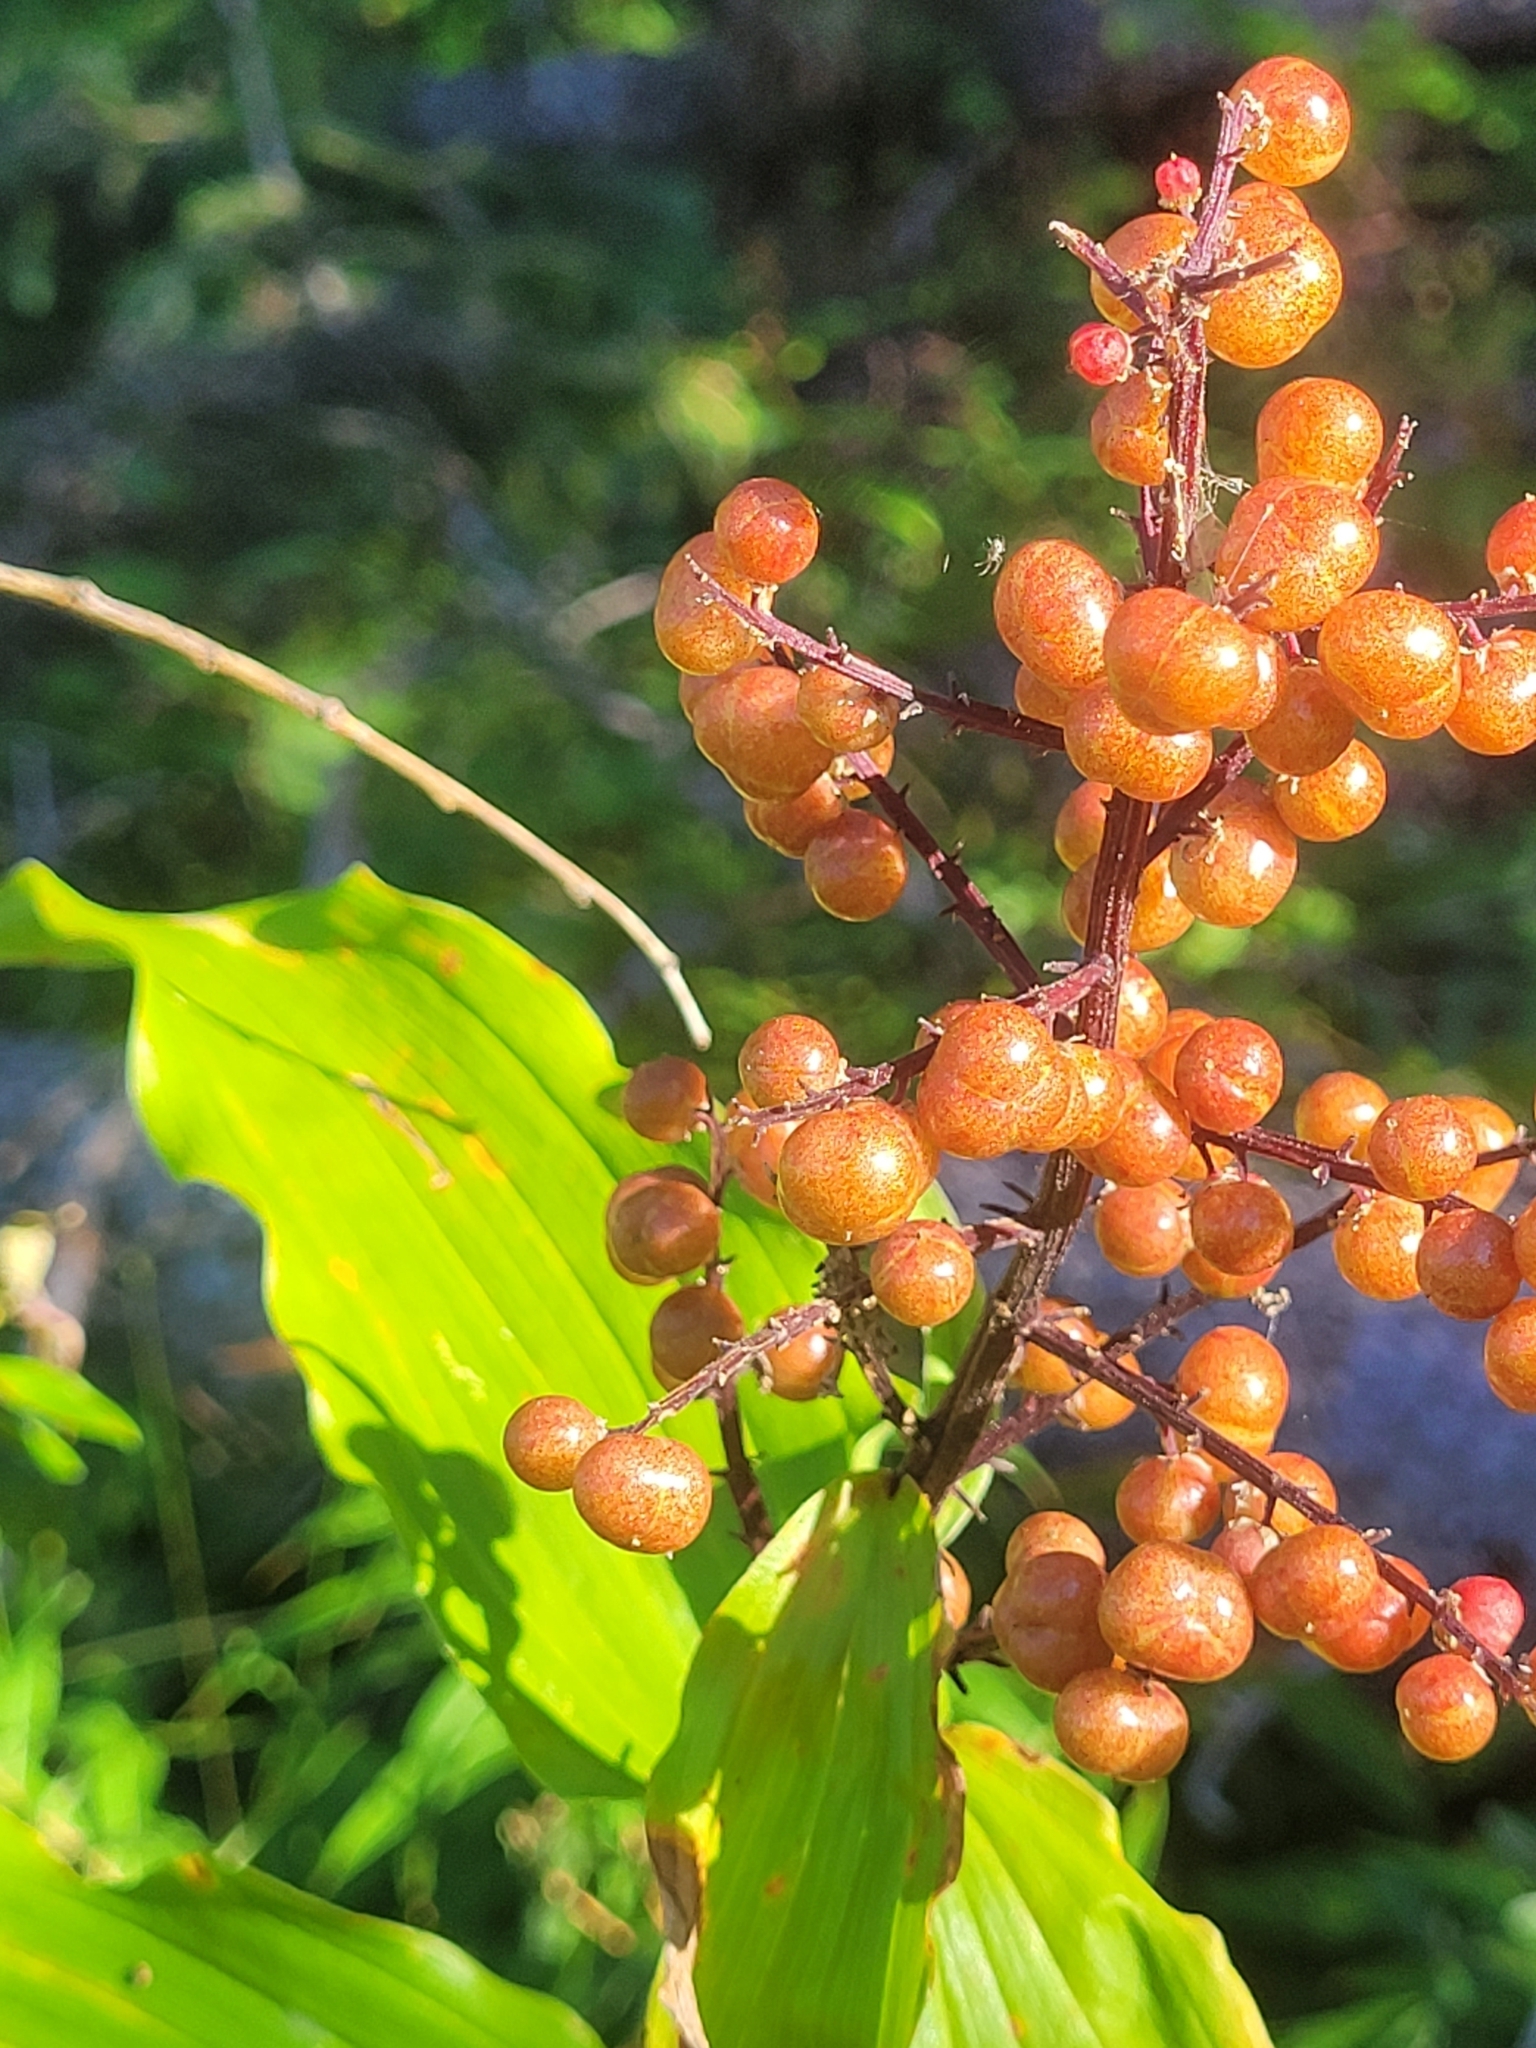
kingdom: Plantae
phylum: Tracheophyta
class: Liliopsida
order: Asparagales
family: Asparagaceae
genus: Maianthemum
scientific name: Maianthemum racemosum
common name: False spikenard
